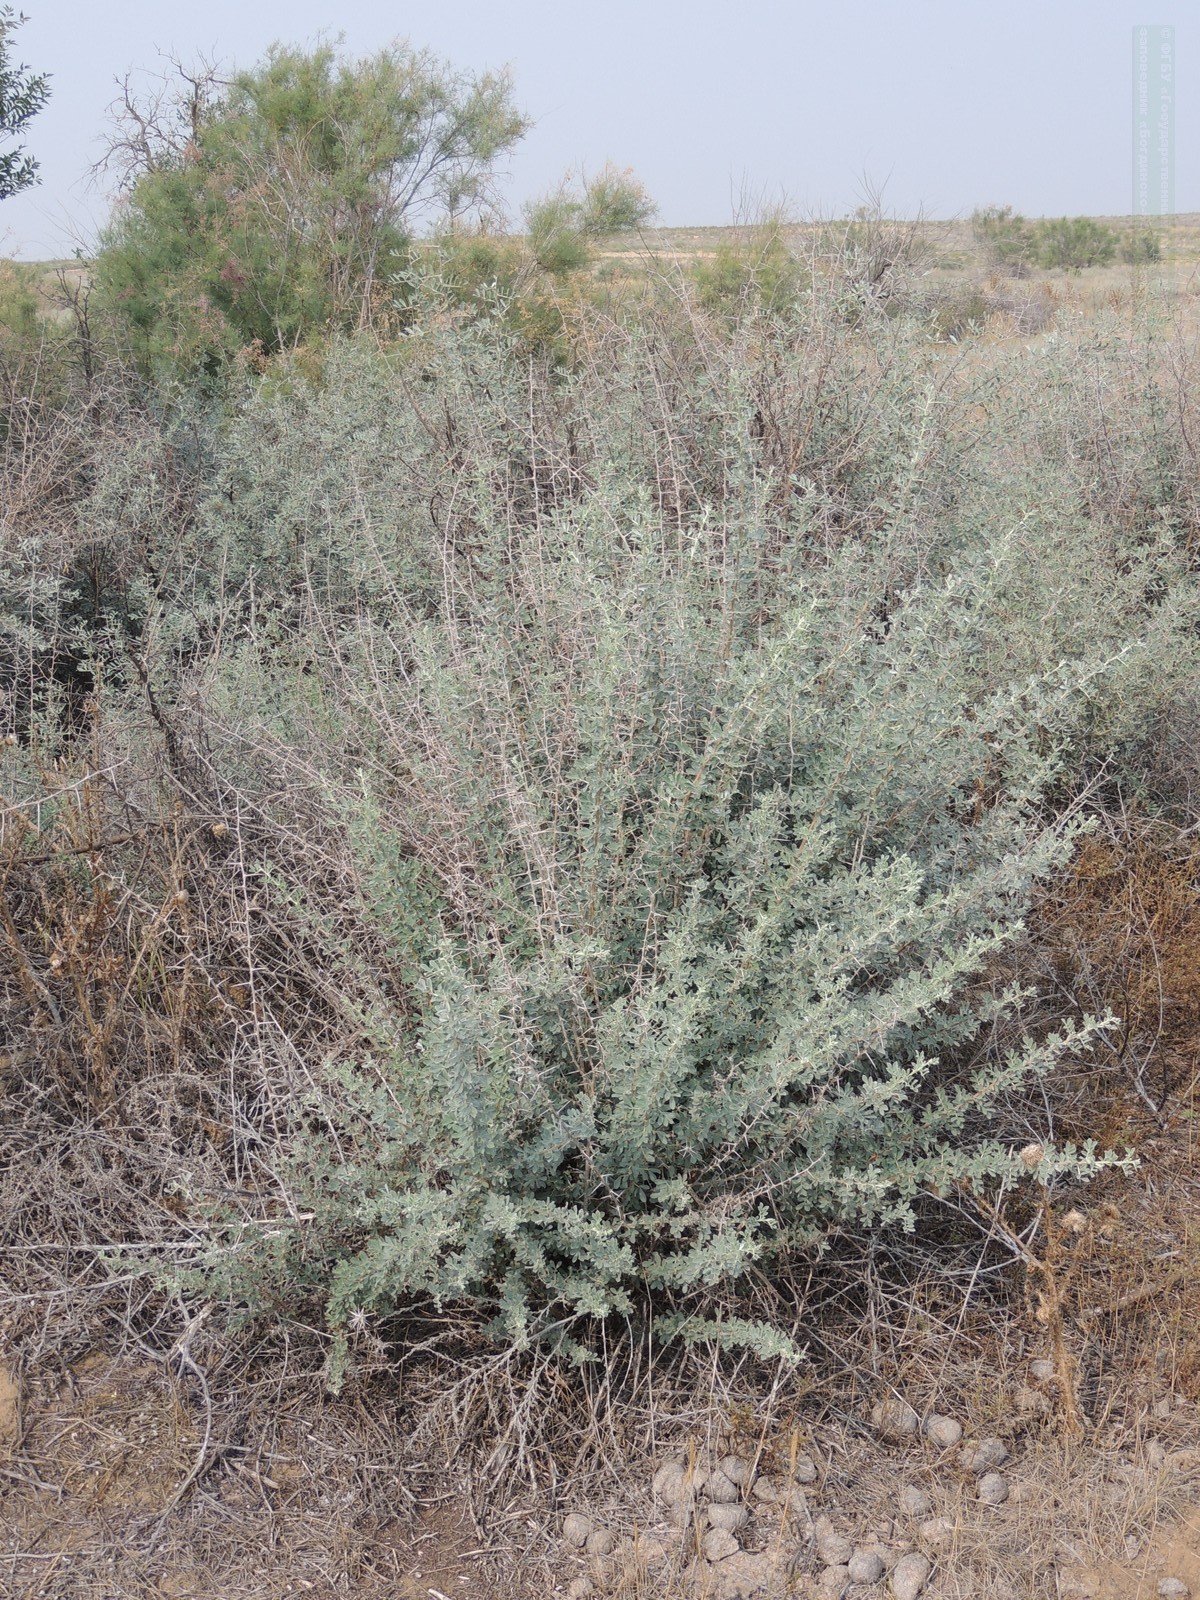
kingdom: Plantae
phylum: Tracheophyta
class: Magnoliopsida
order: Fabales
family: Fabaceae
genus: Caragana
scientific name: Caragana halodendron
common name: Siberian salt-tree
